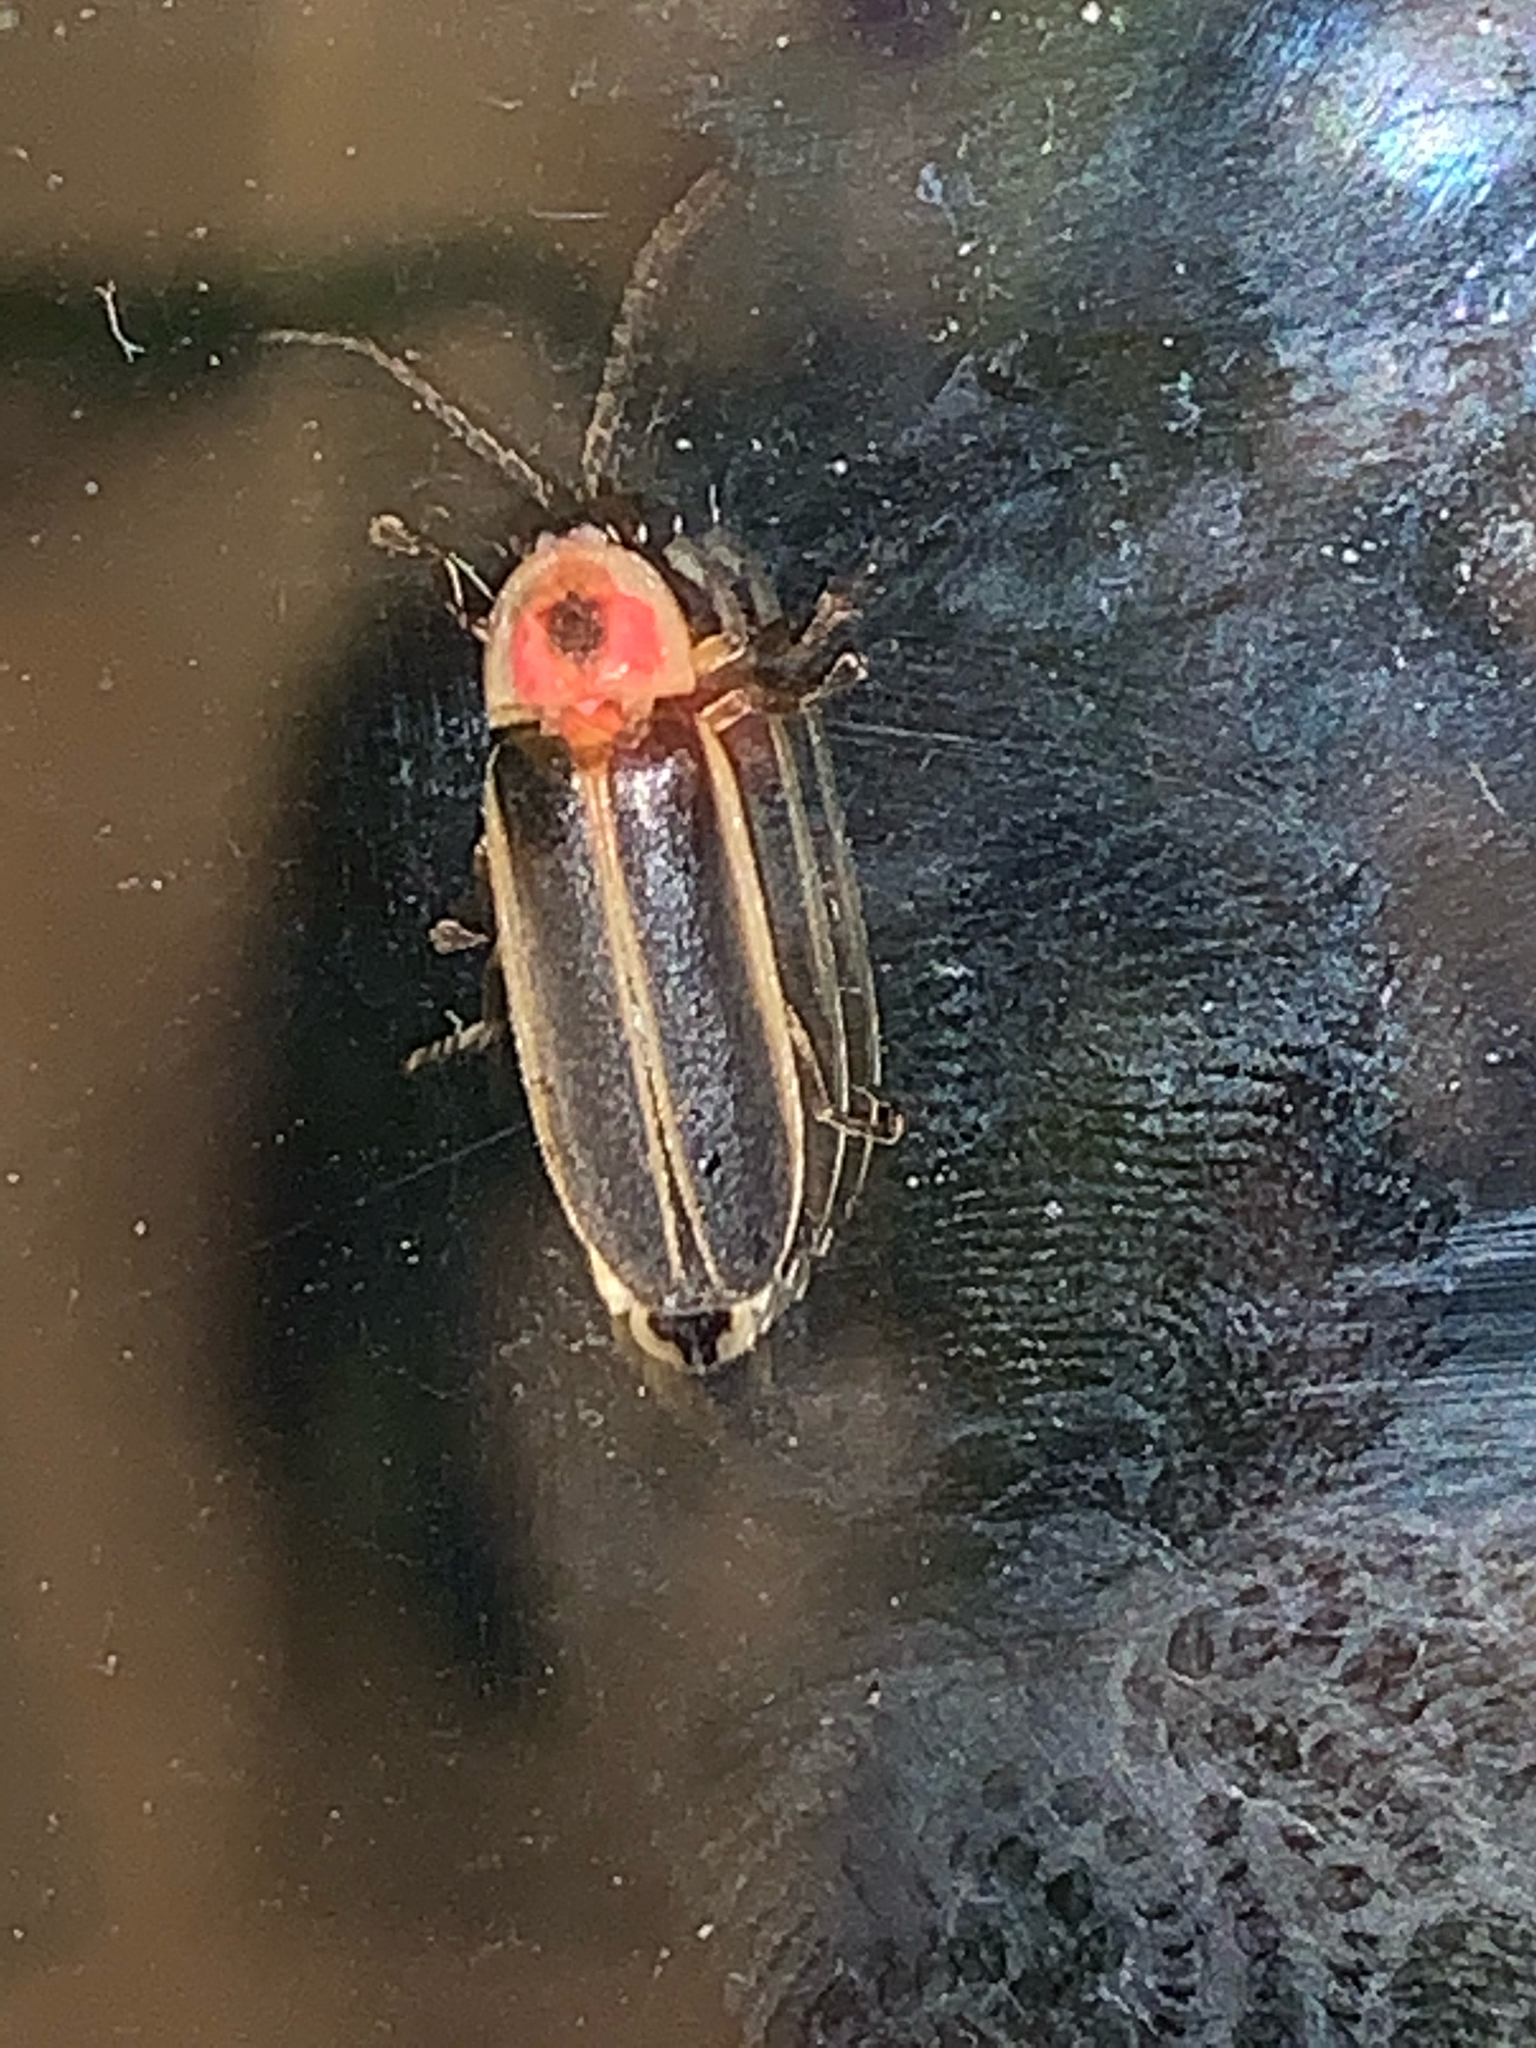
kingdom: Animalia
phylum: Arthropoda
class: Insecta
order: Coleoptera
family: Lampyridae
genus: Photinus
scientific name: Photinus pyralis
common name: Big dipper firefly
